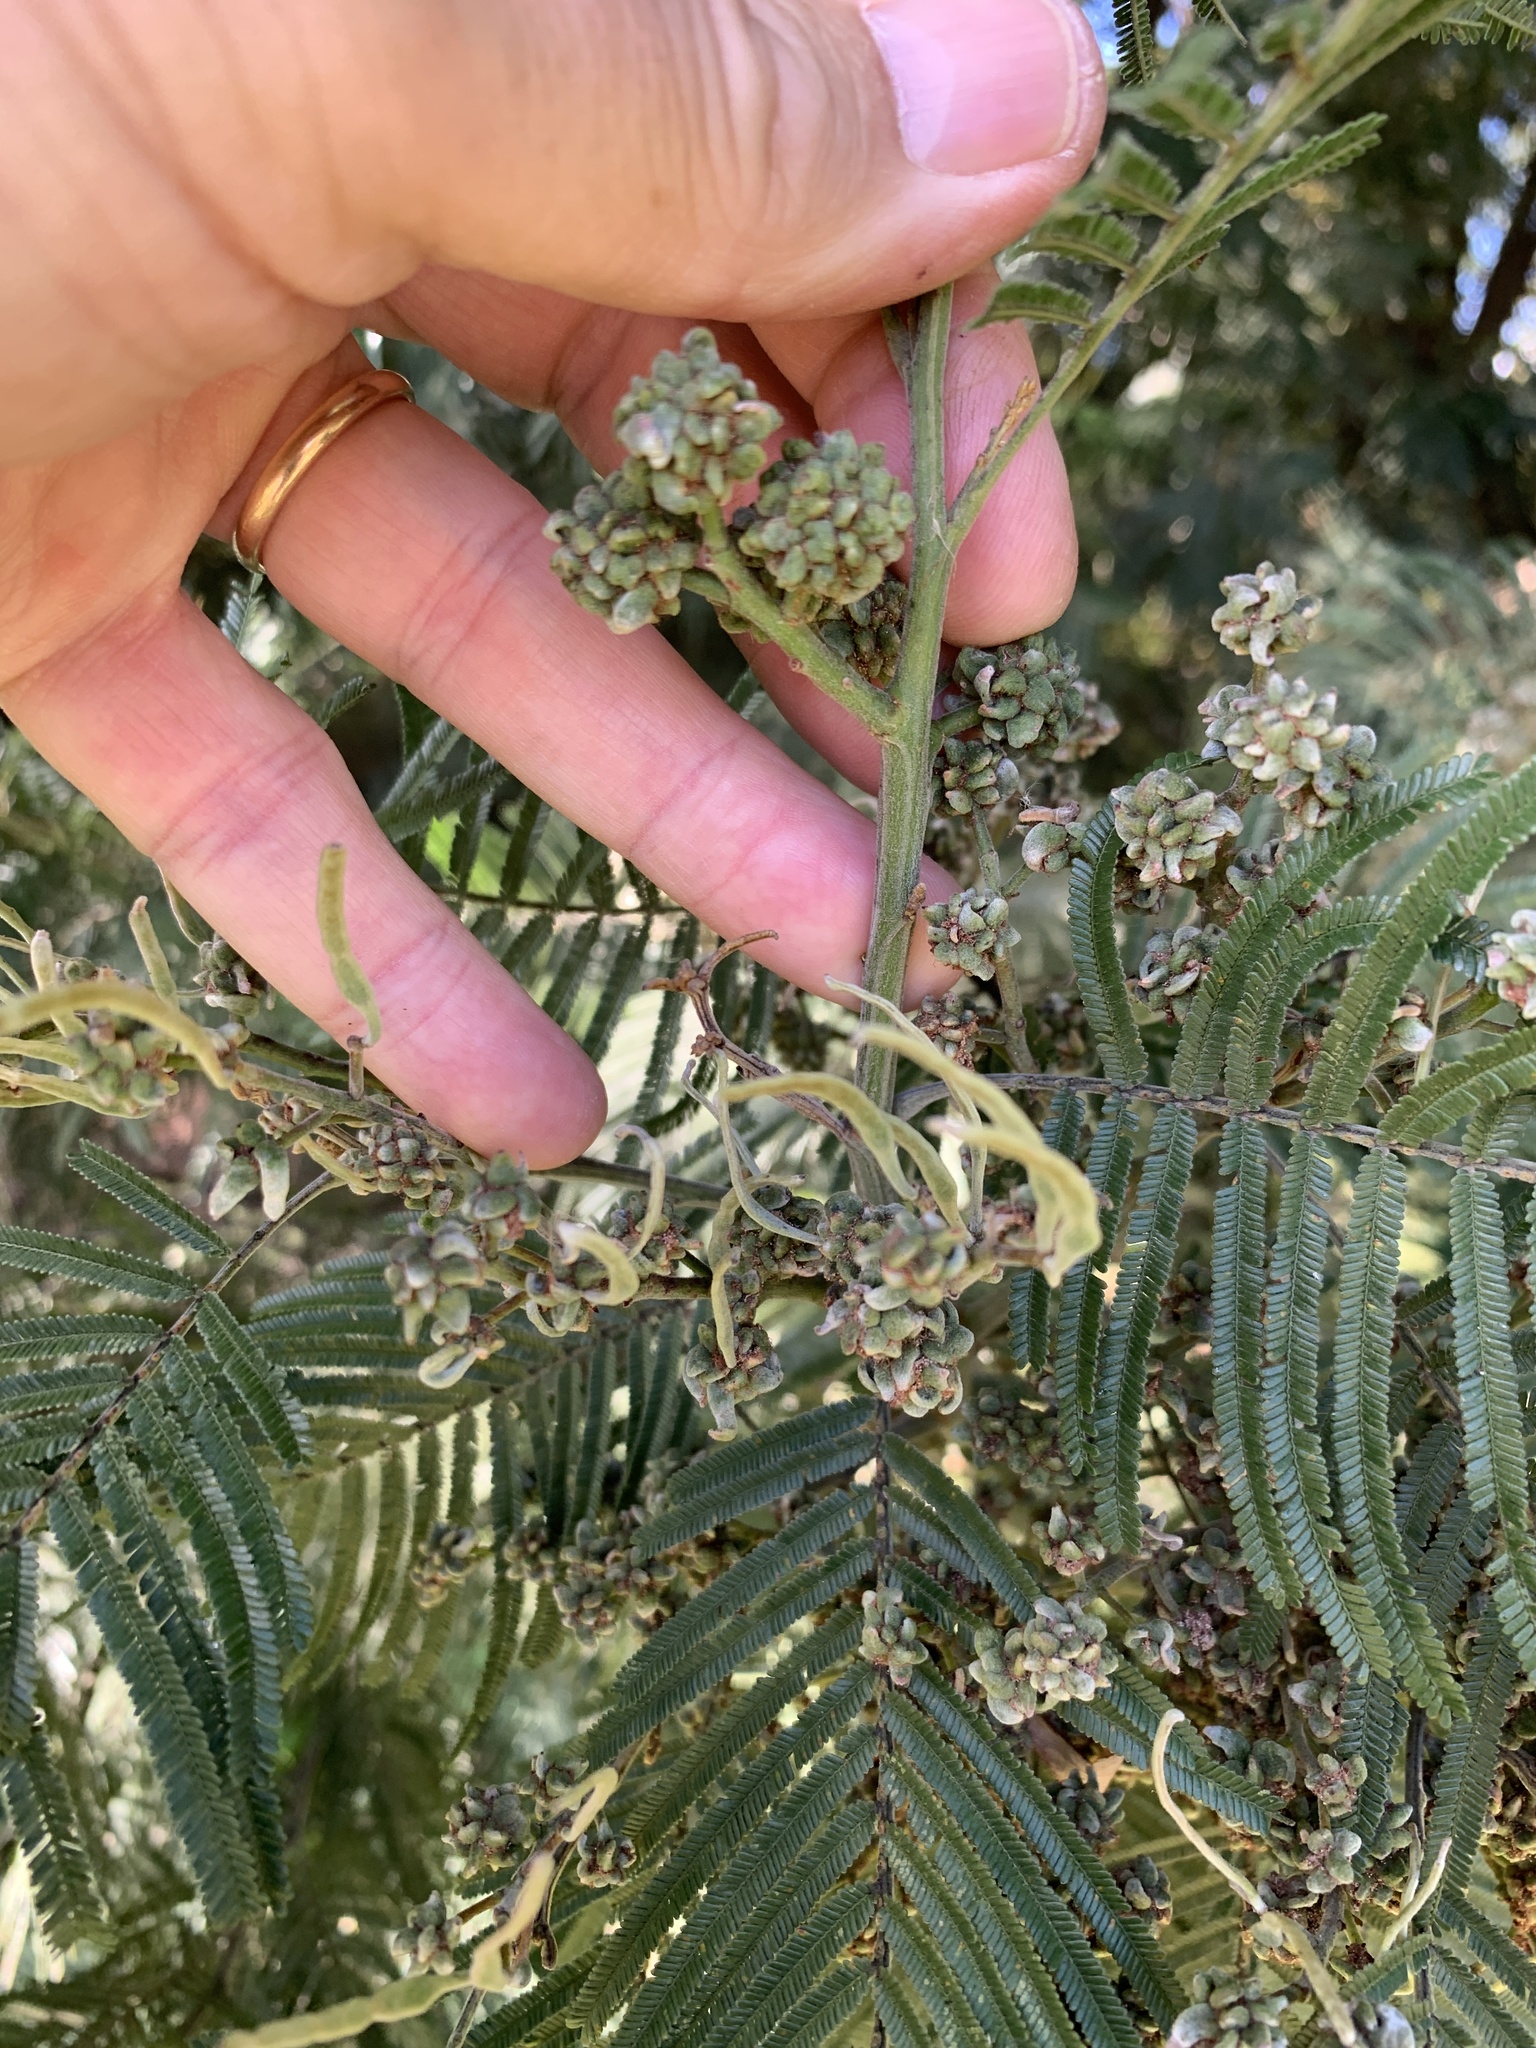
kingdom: Animalia
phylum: Arthropoda
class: Insecta
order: Diptera
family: Cecidomyiidae
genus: Dasineura
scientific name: Dasineura rubiformis
